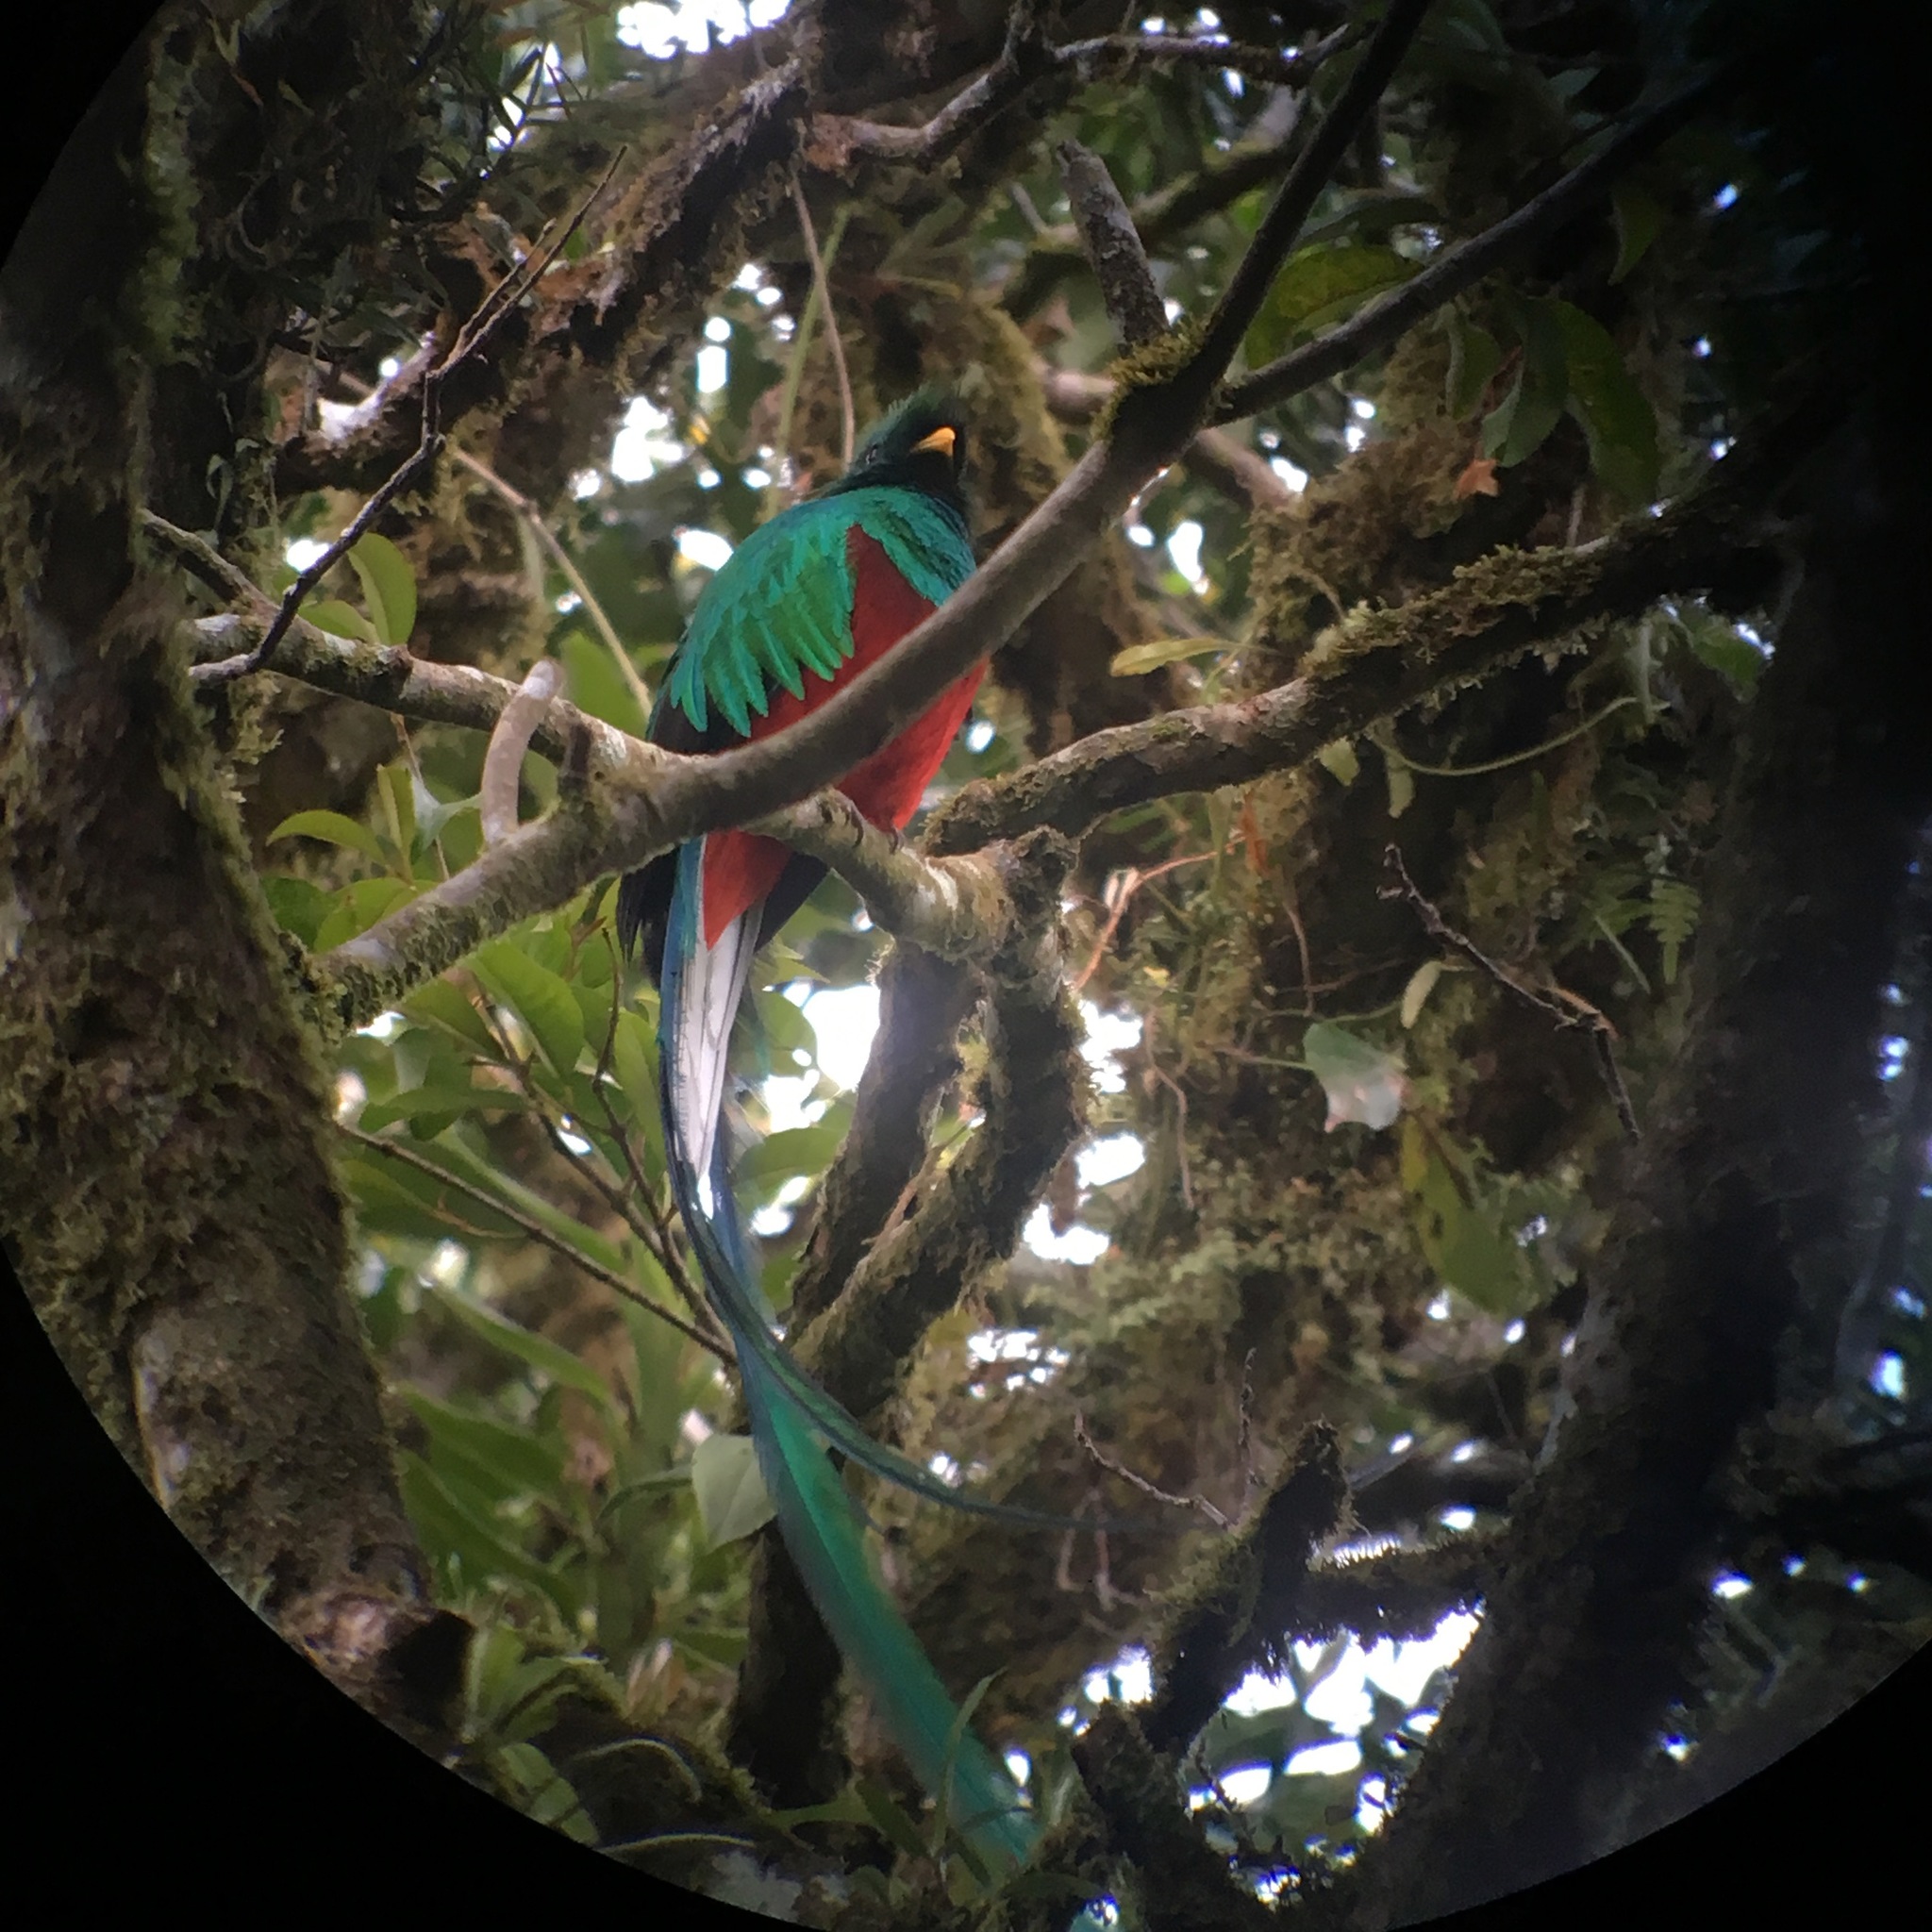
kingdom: Animalia
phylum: Chordata
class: Aves
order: Trogoniformes
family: Trogonidae
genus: Pharomachrus
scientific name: Pharomachrus mocinno
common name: Resplendent quetzal
